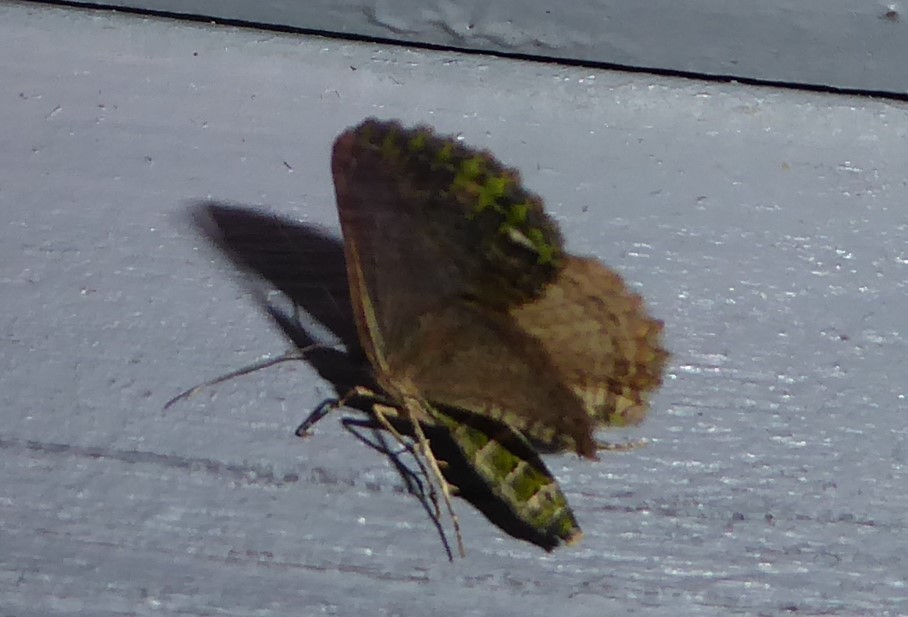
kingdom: Animalia
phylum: Arthropoda
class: Insecta
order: Lepidoptera
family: Geometridae
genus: Austrocidaria
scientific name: Austrocidaria similata
